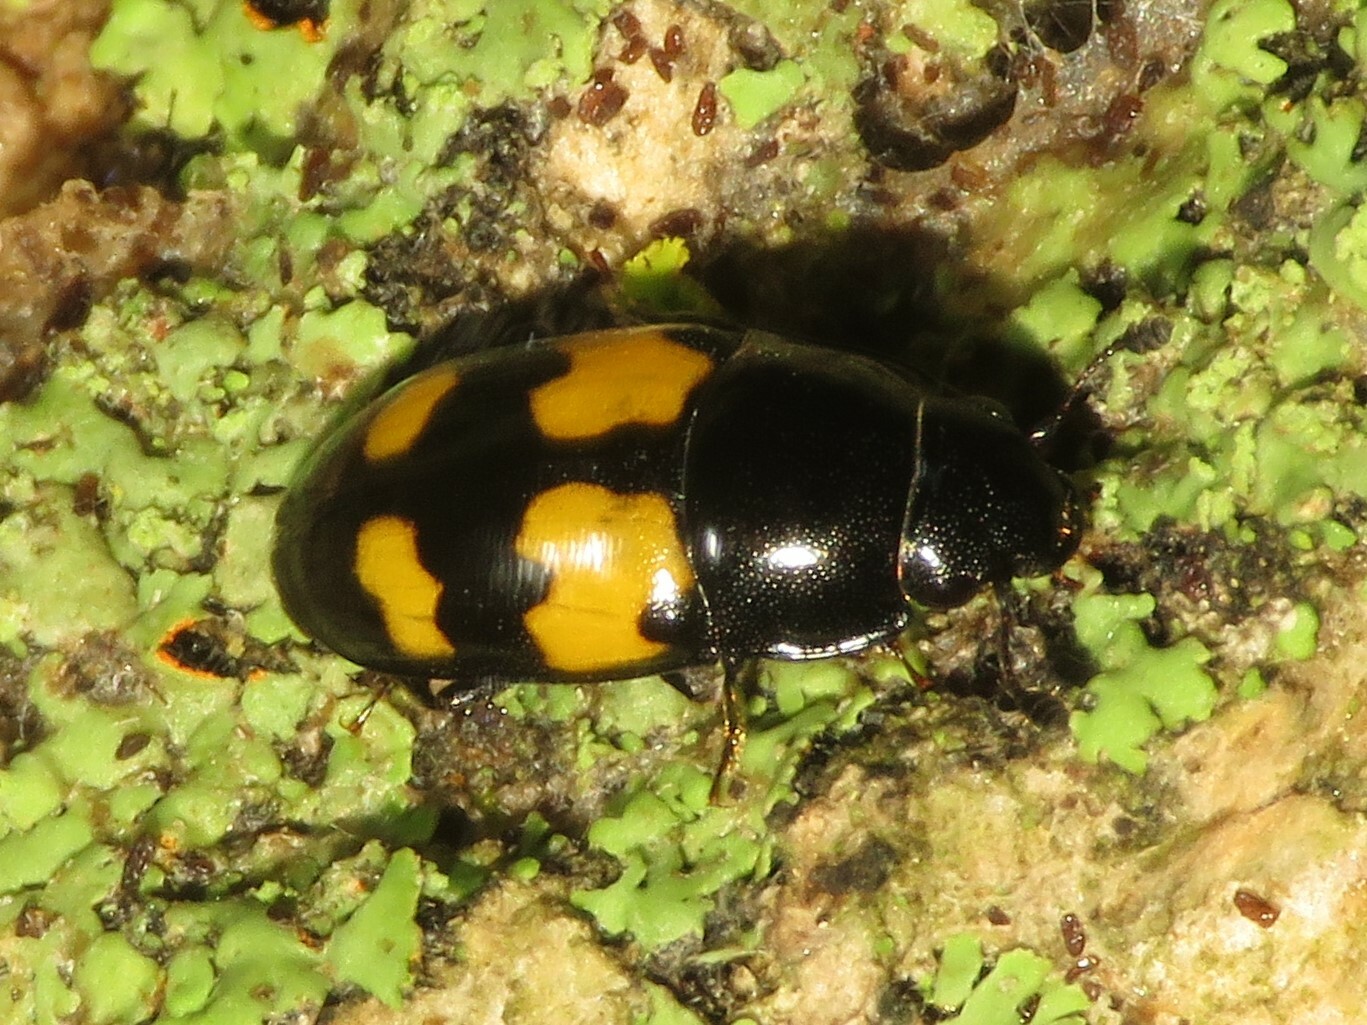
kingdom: Animalia
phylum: Arthropoda
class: Insecta
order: Coleoptera
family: Nitidulidae
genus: Glischrochilus
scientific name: Glischrochilus fasciatus
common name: Picnic beetle
